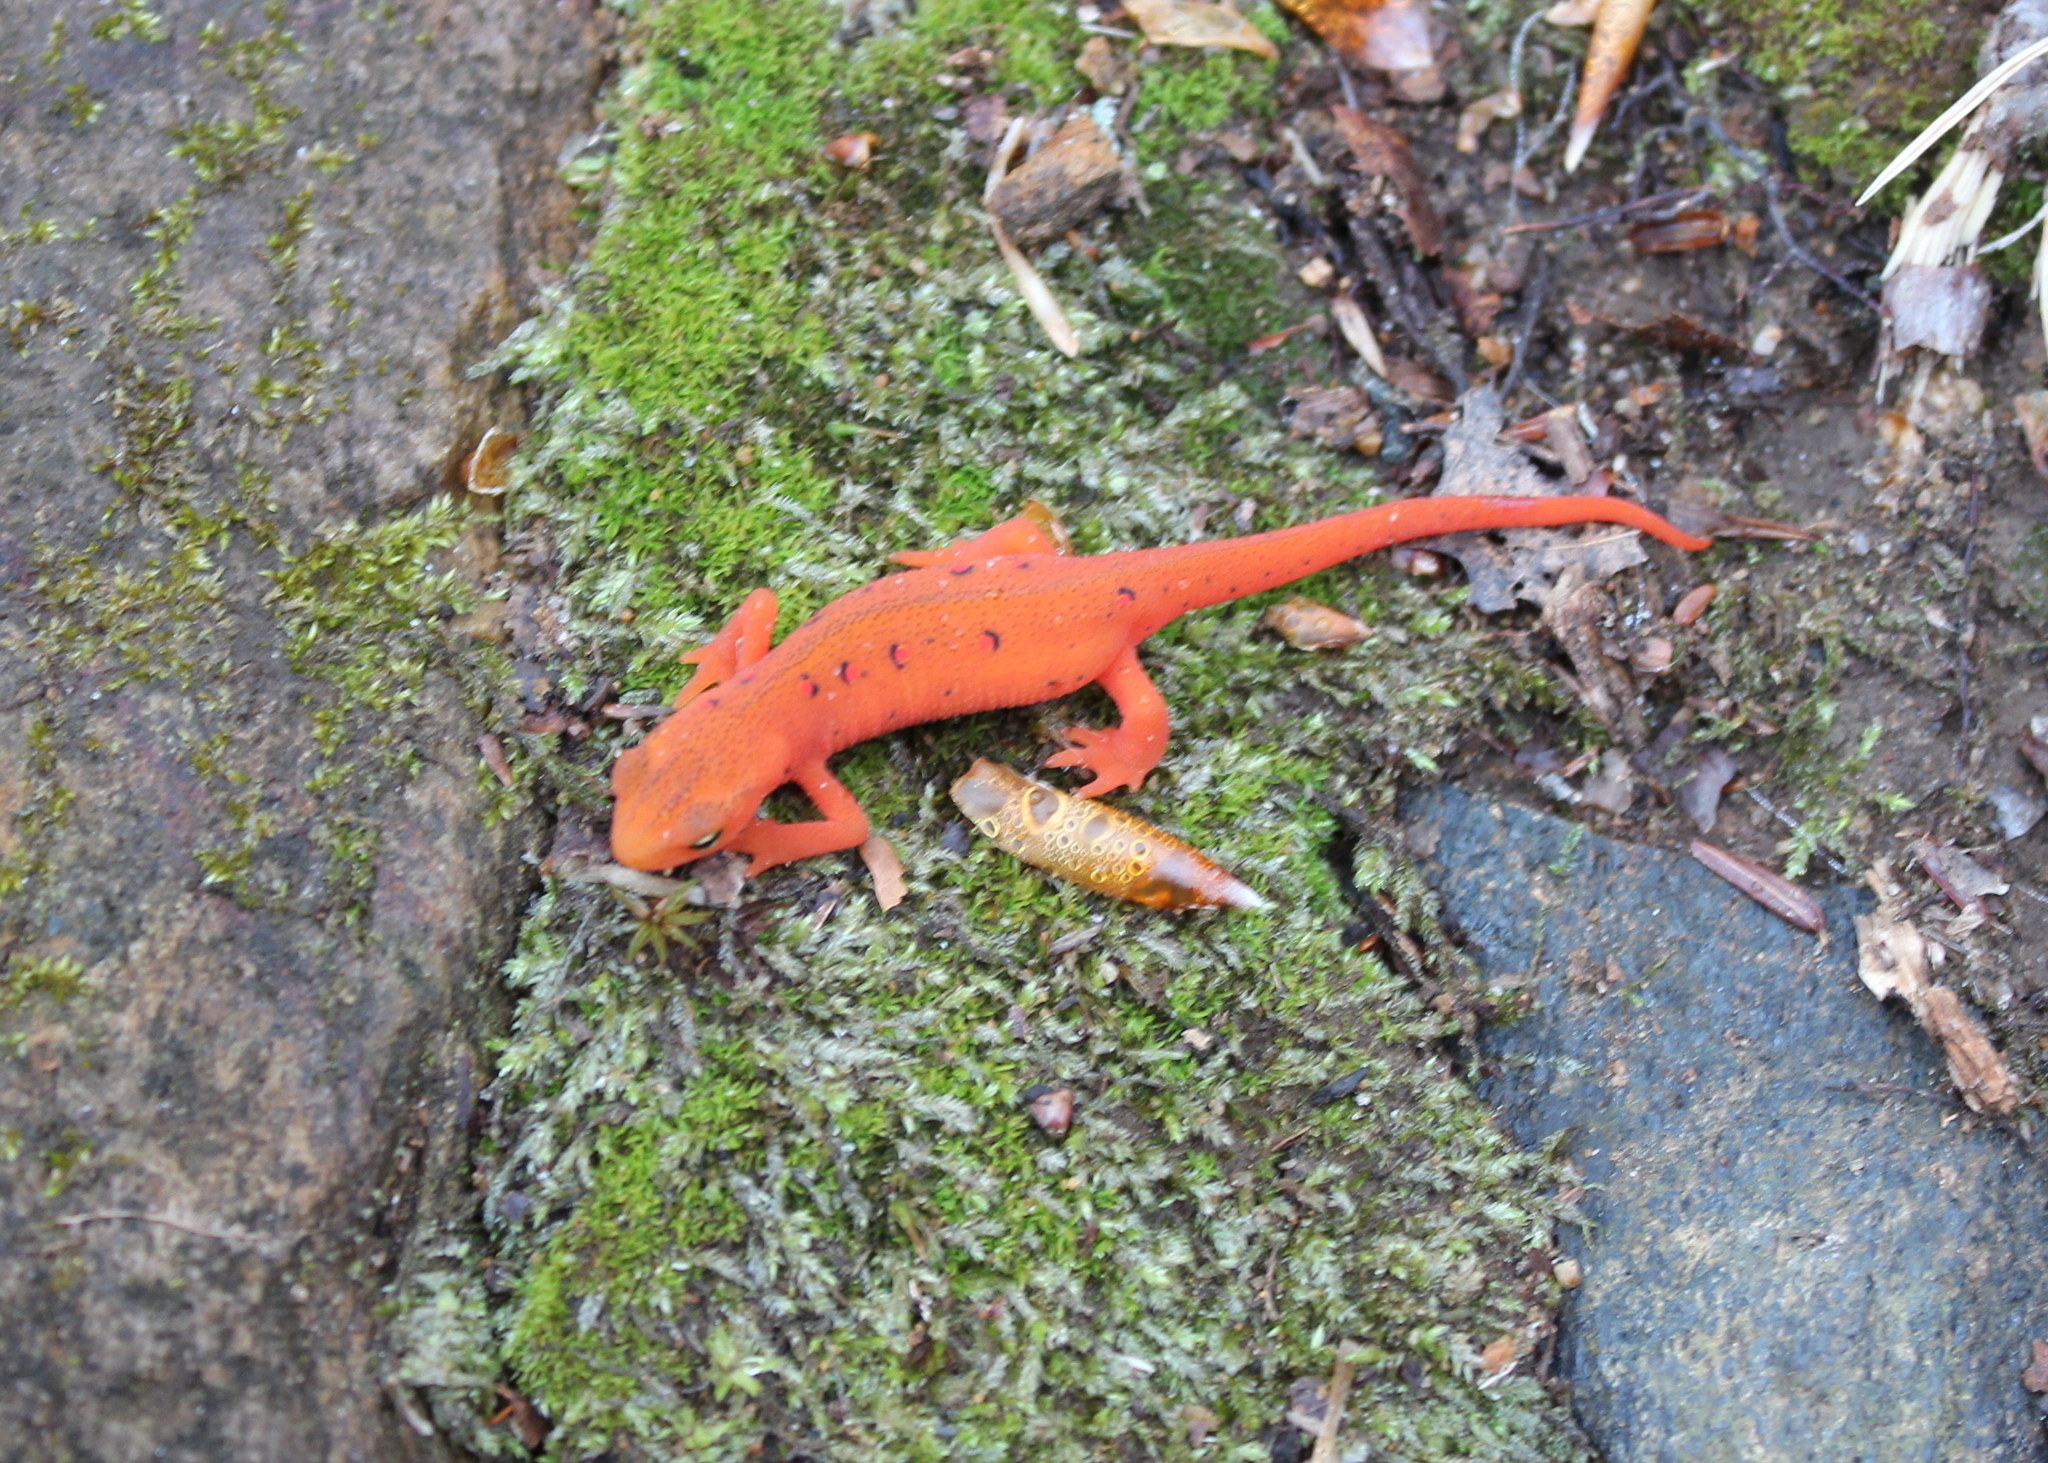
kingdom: Animalia
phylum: Chordata
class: Amphibia
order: Caudata
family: Salamandridae
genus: Notophthalmus
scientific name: Notophthalmus viridescens
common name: Eastern newt
